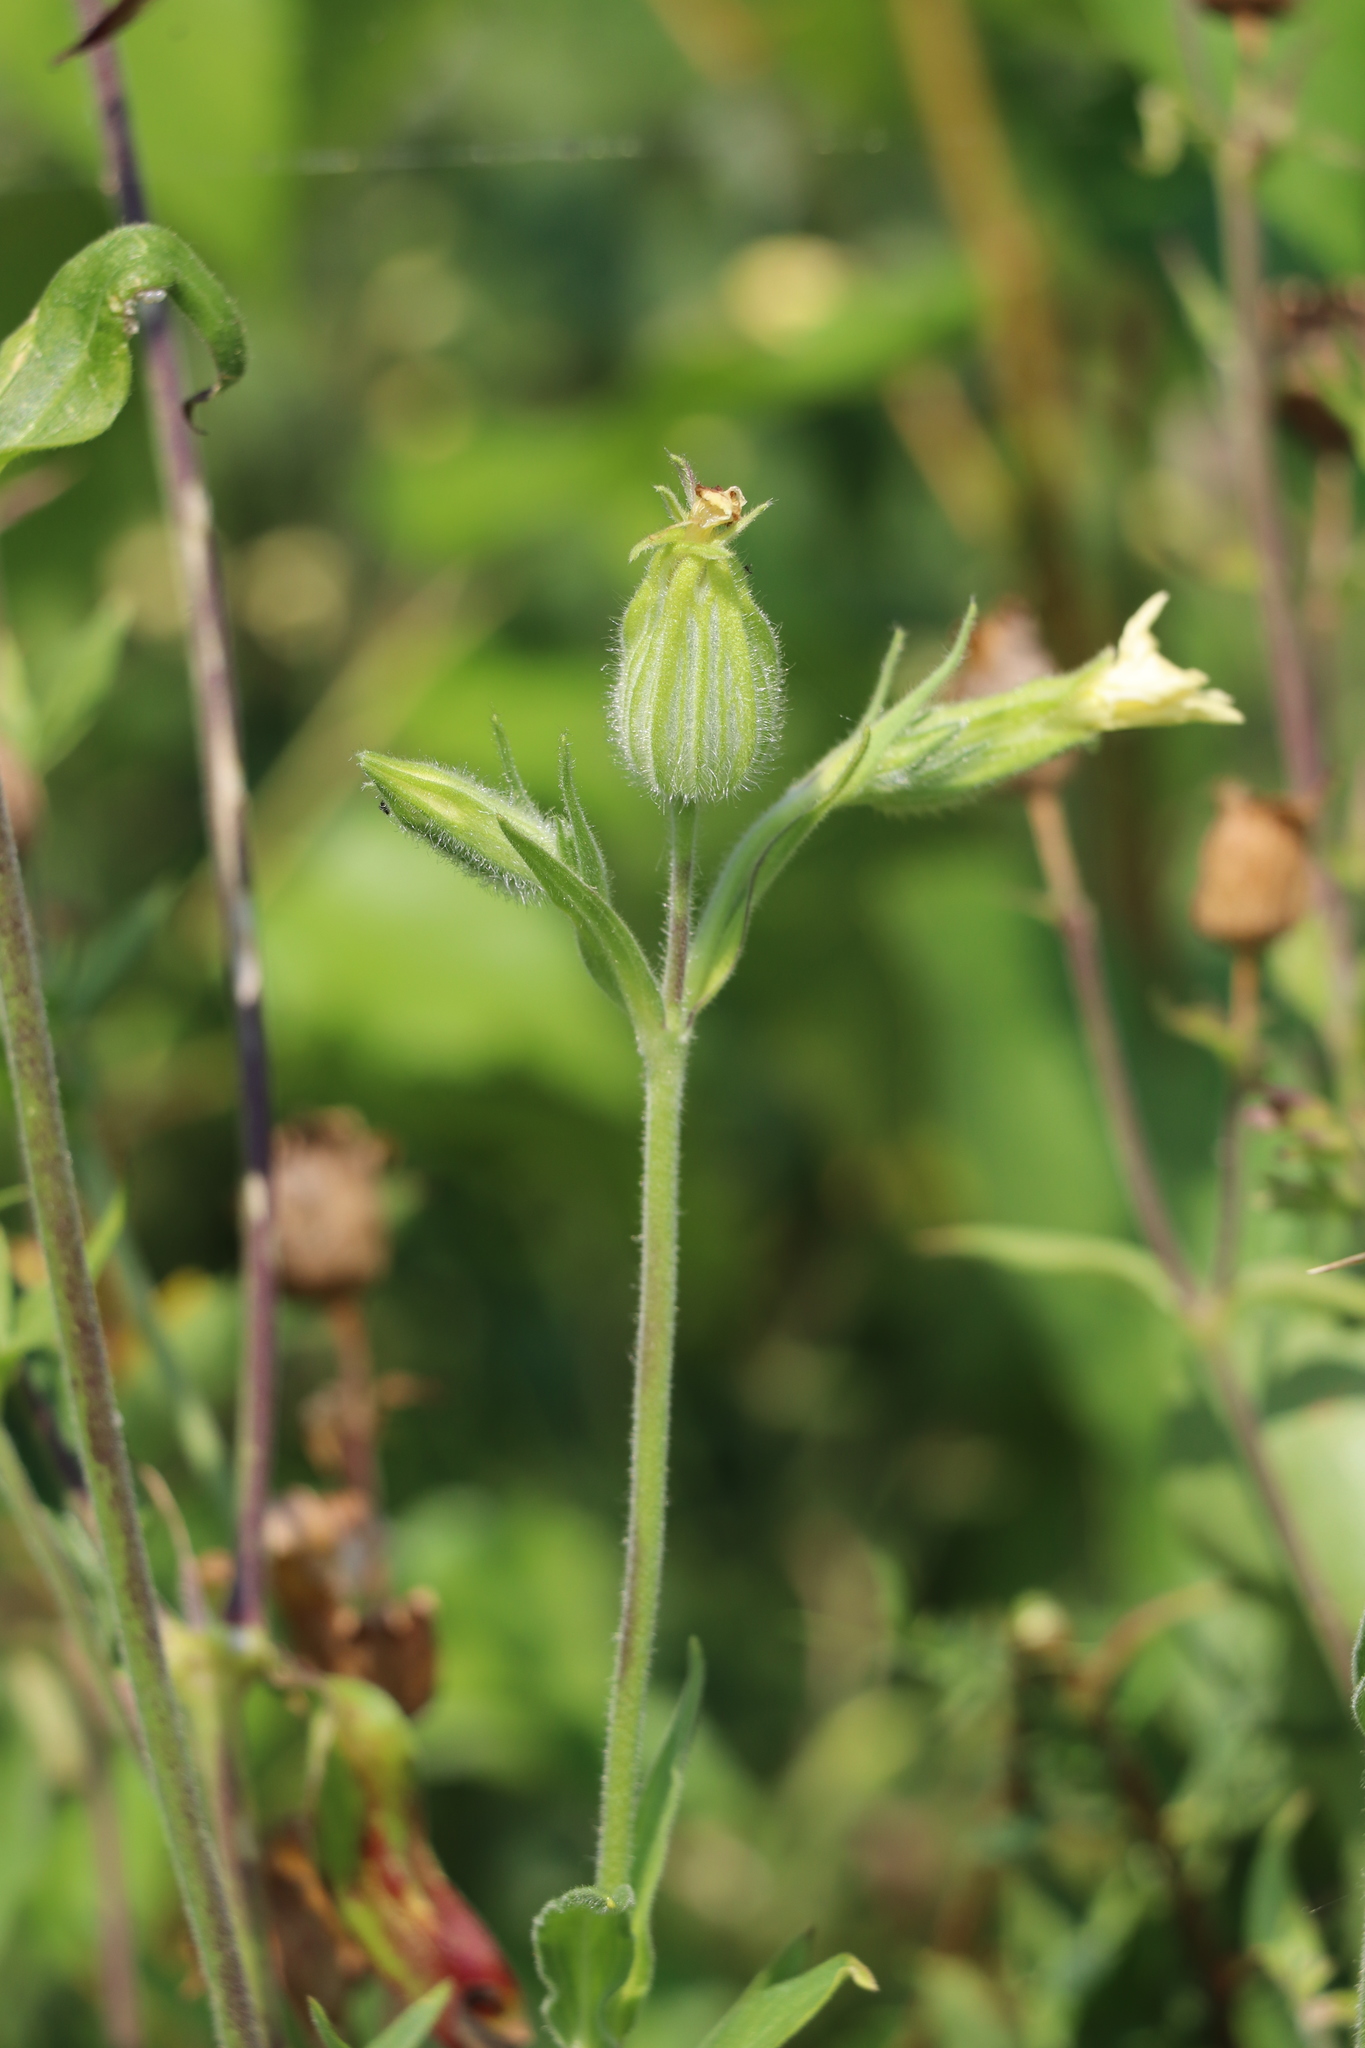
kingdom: Plantae
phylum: Tracheophyta
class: Magnoliopsida
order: Caryophyllales
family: Caryophyllaceae
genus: Silene
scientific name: Silene latifolia
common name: White campion
